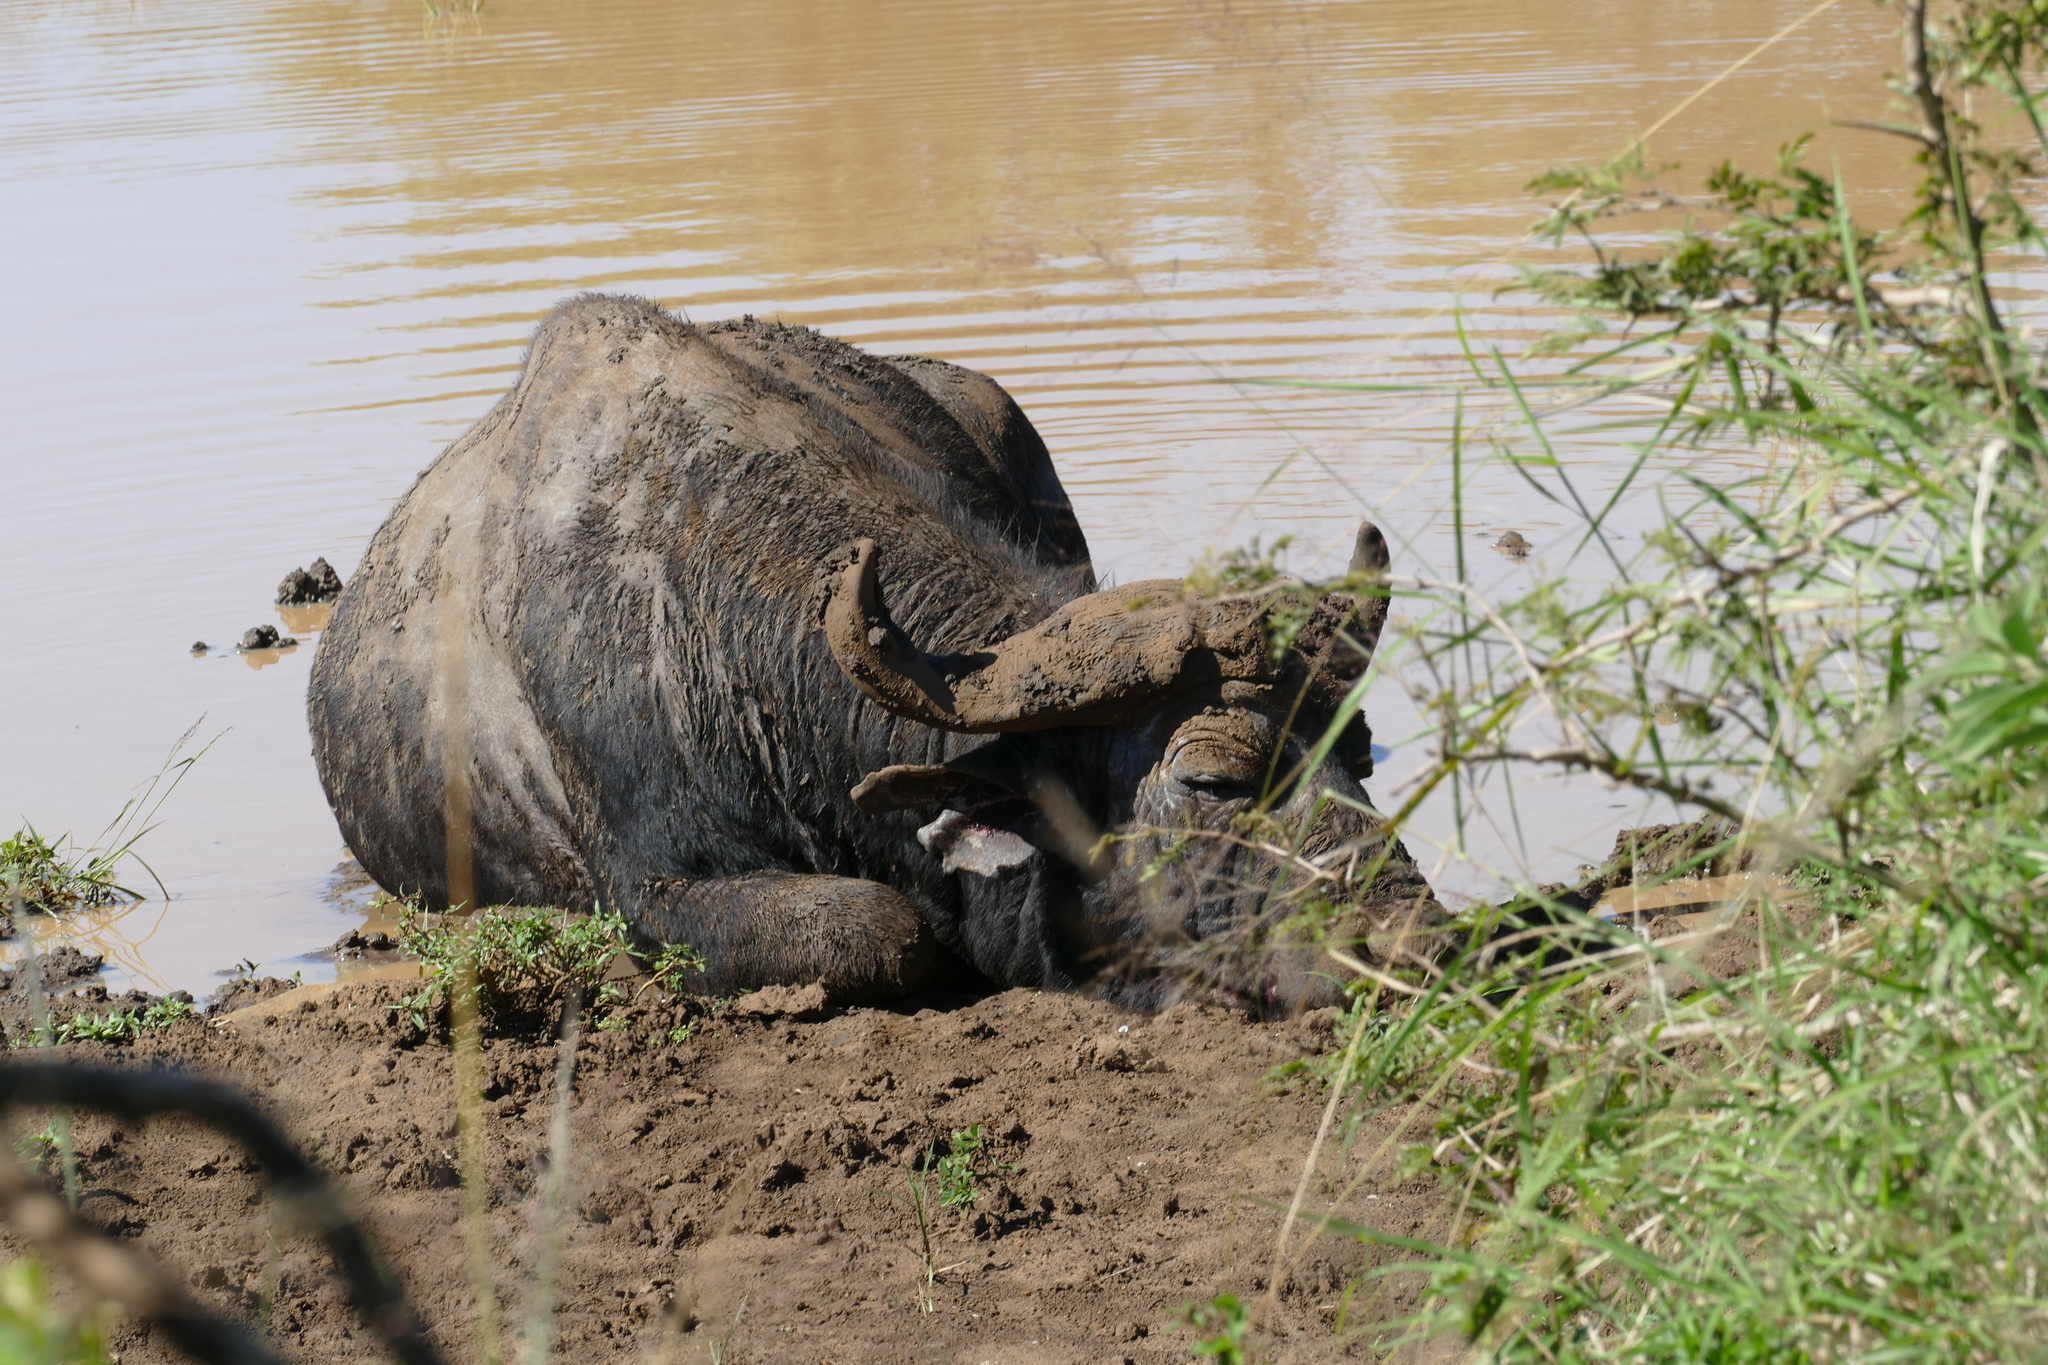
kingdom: Animalia
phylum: Chordata
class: Mammalia
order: Artiodactyla
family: Bovidae
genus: Syncerus
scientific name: Syncerus caffer
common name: African buffalo
